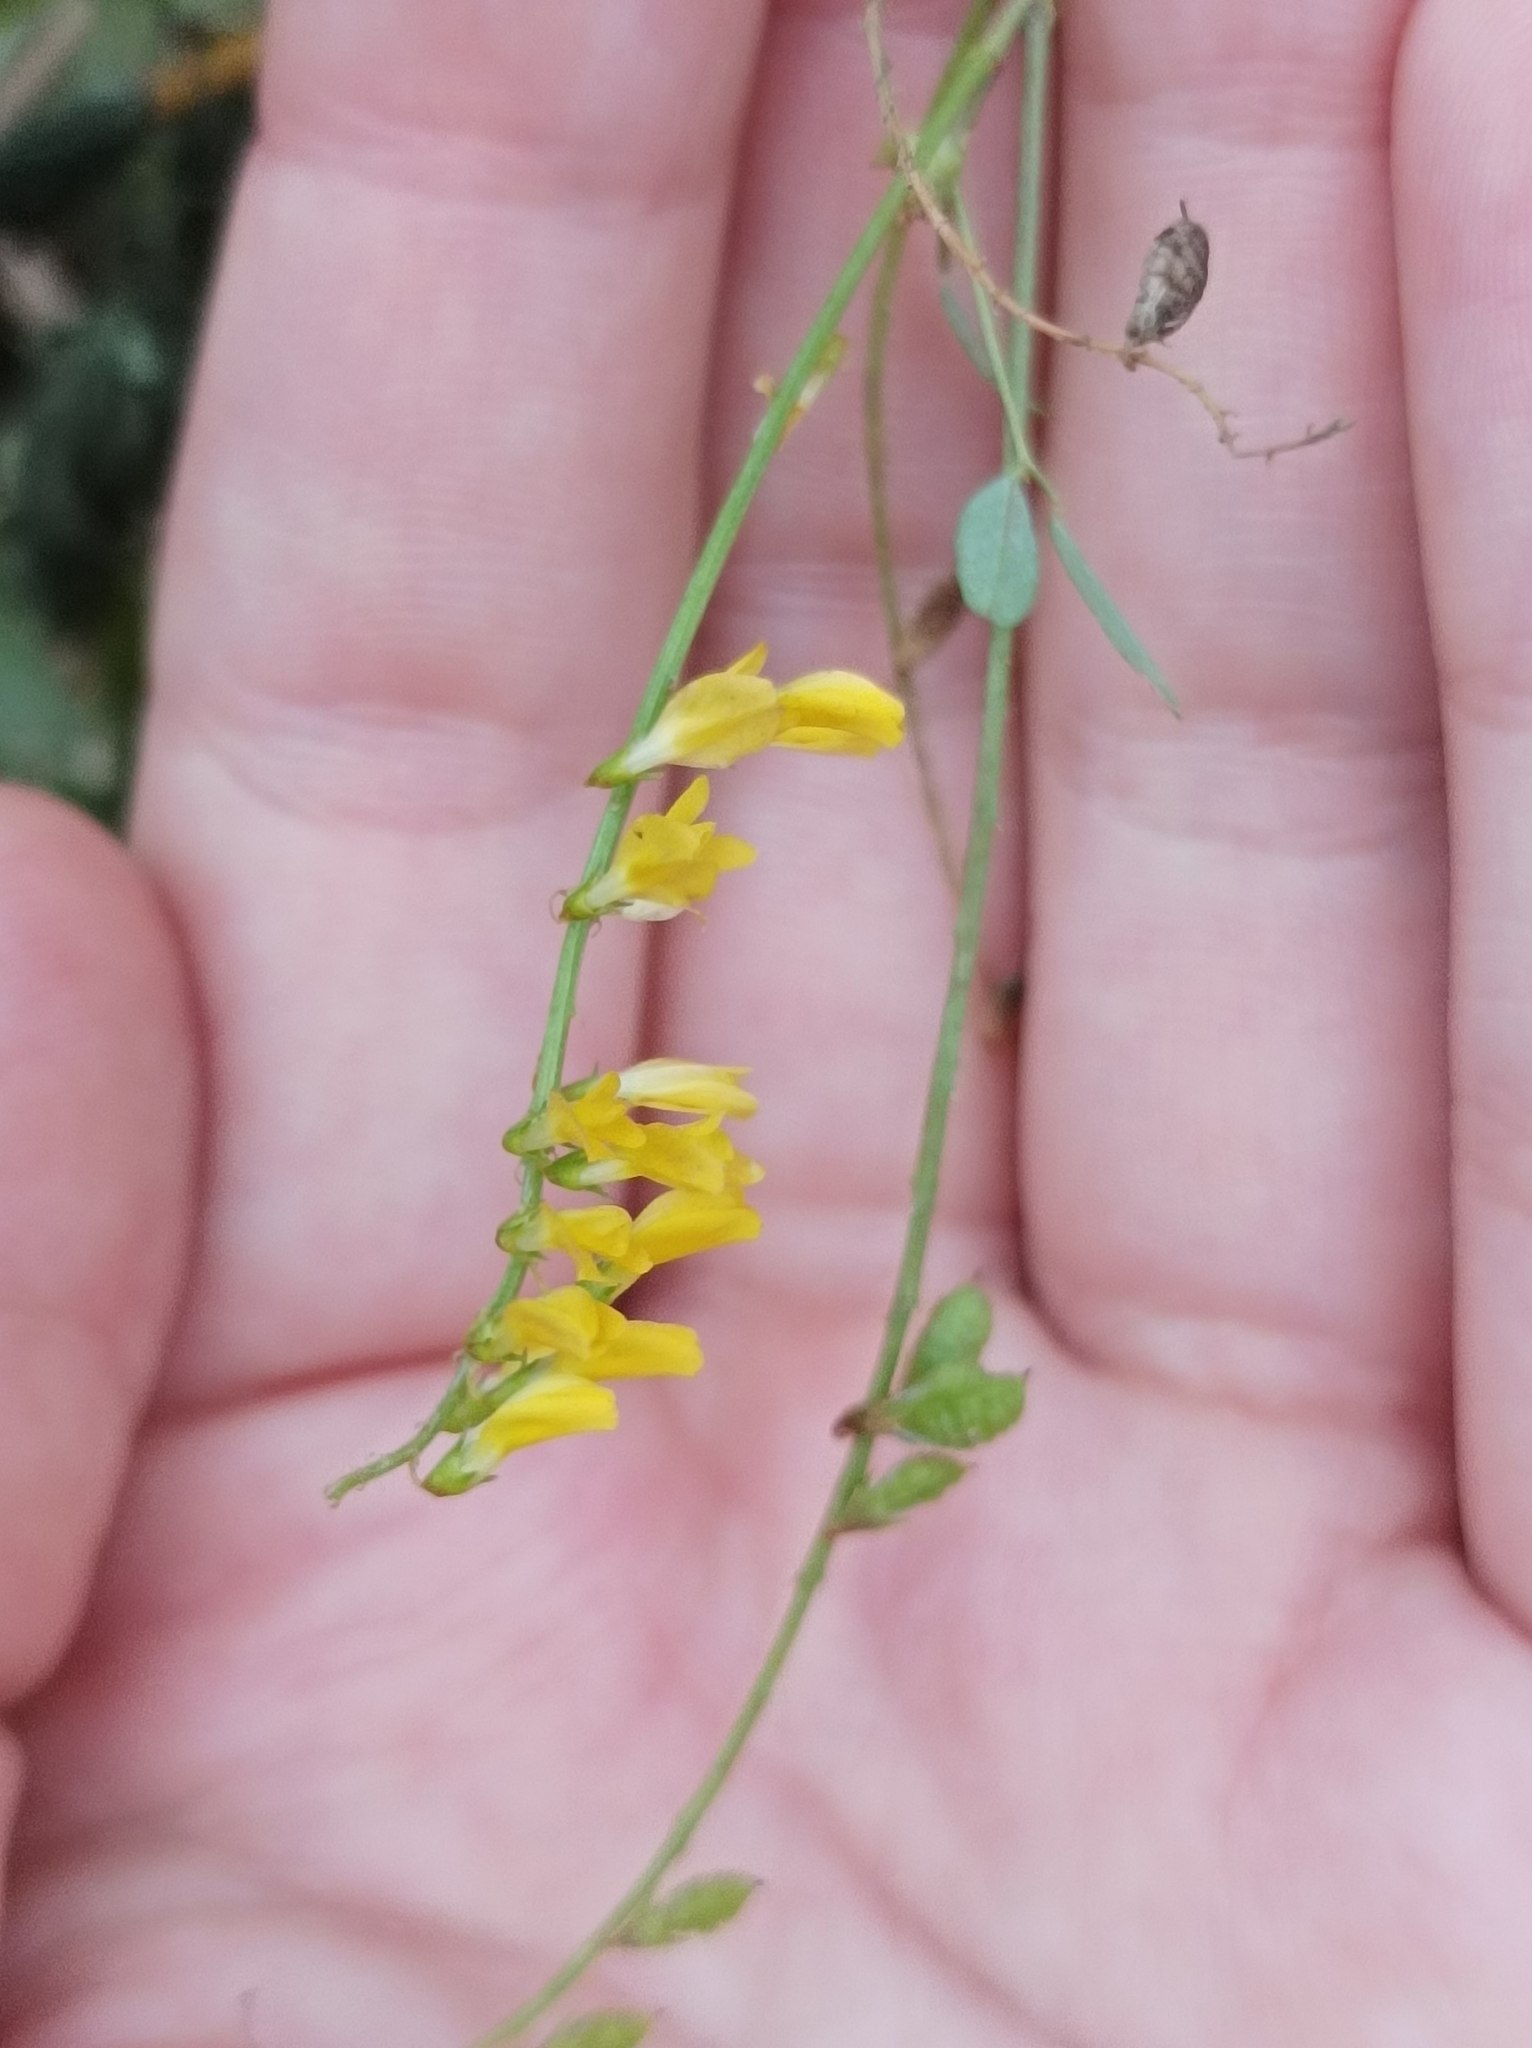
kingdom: Plantae
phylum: Tracheophyta
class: Magnoliopsida
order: Fabales
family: Fabaceae
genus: Melilotus
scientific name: Melilotus officinalis
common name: Sweetclover
